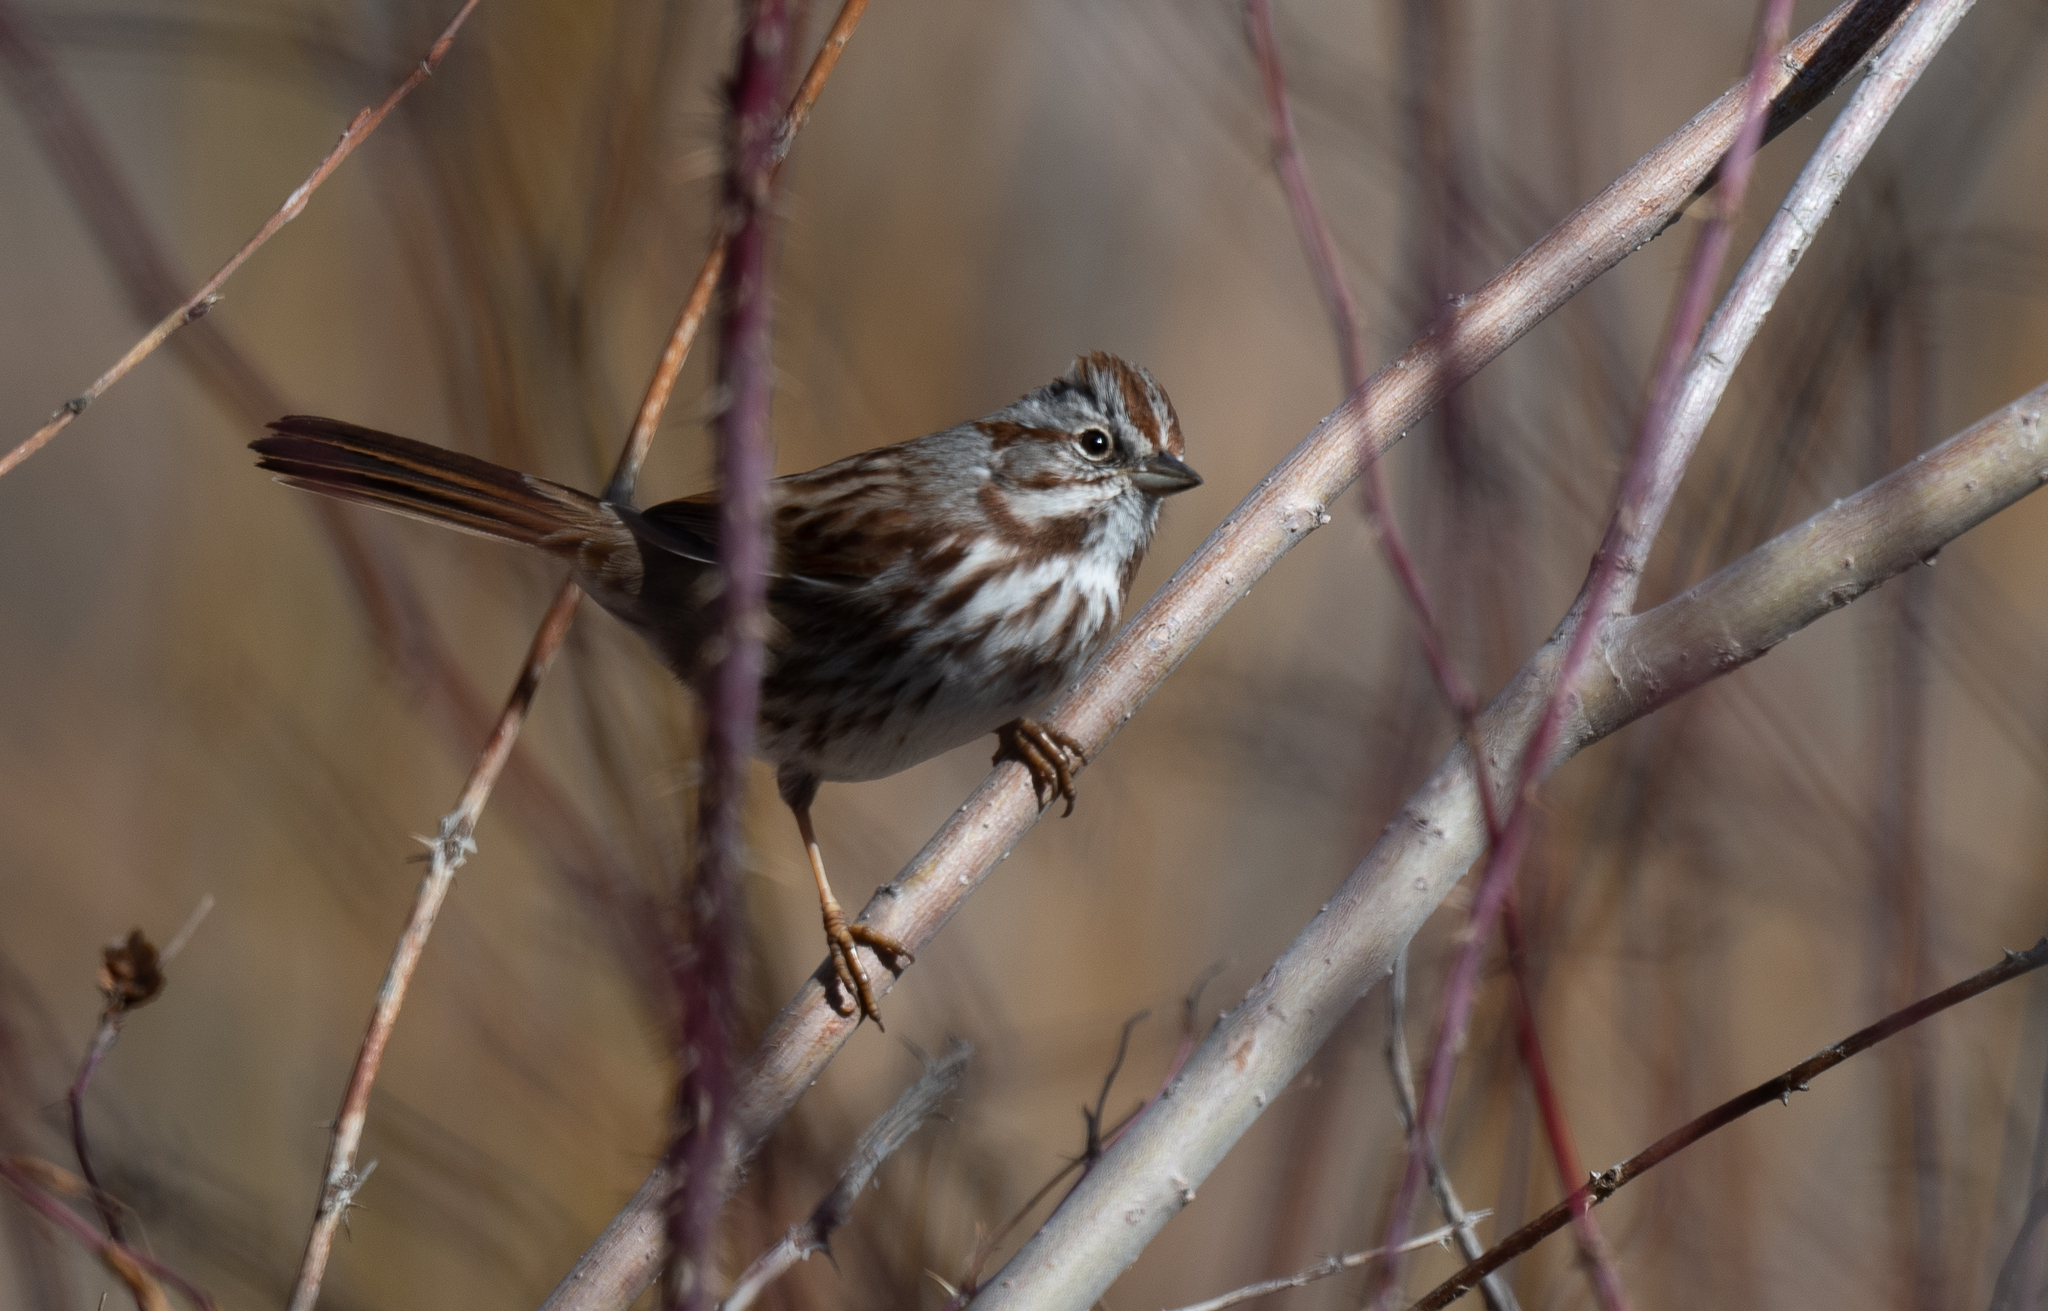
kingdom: Animalia
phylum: Chordata
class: Aves
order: Passeriformes
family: Passerellidae
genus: Melospiza
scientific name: Melospiza melodia
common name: Song sparrow
